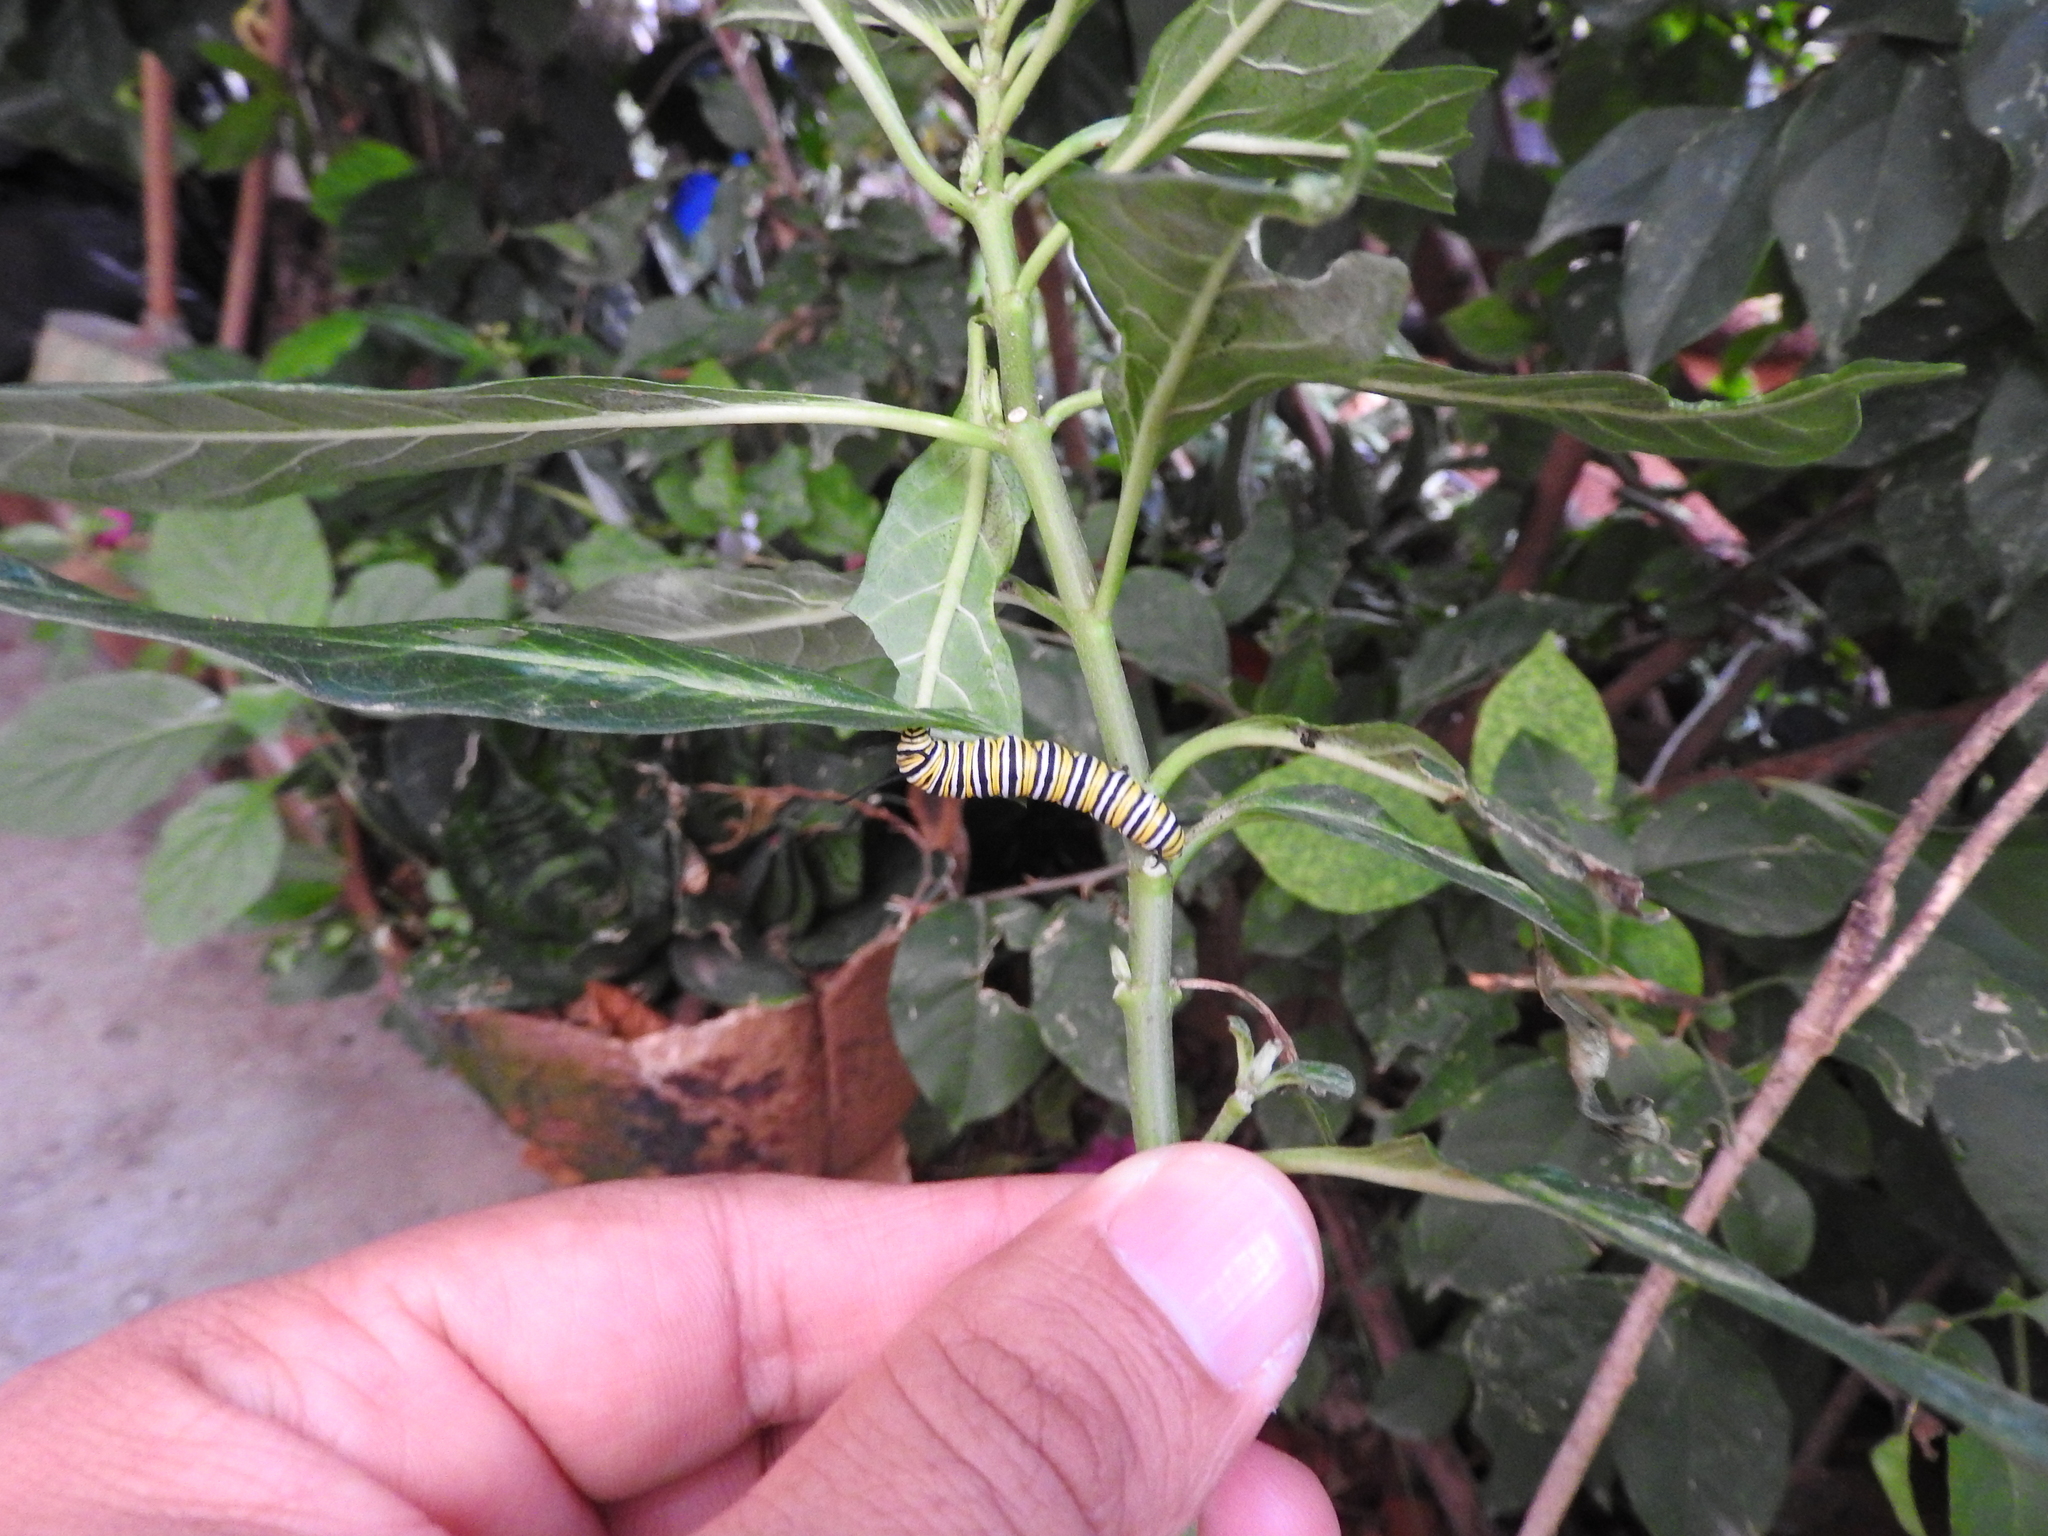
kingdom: Animalia
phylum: Arthropoda
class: Insecta
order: Lepidoptera
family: Nymphalidae
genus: Danaus
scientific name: Danaus plexippus
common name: Monarch
